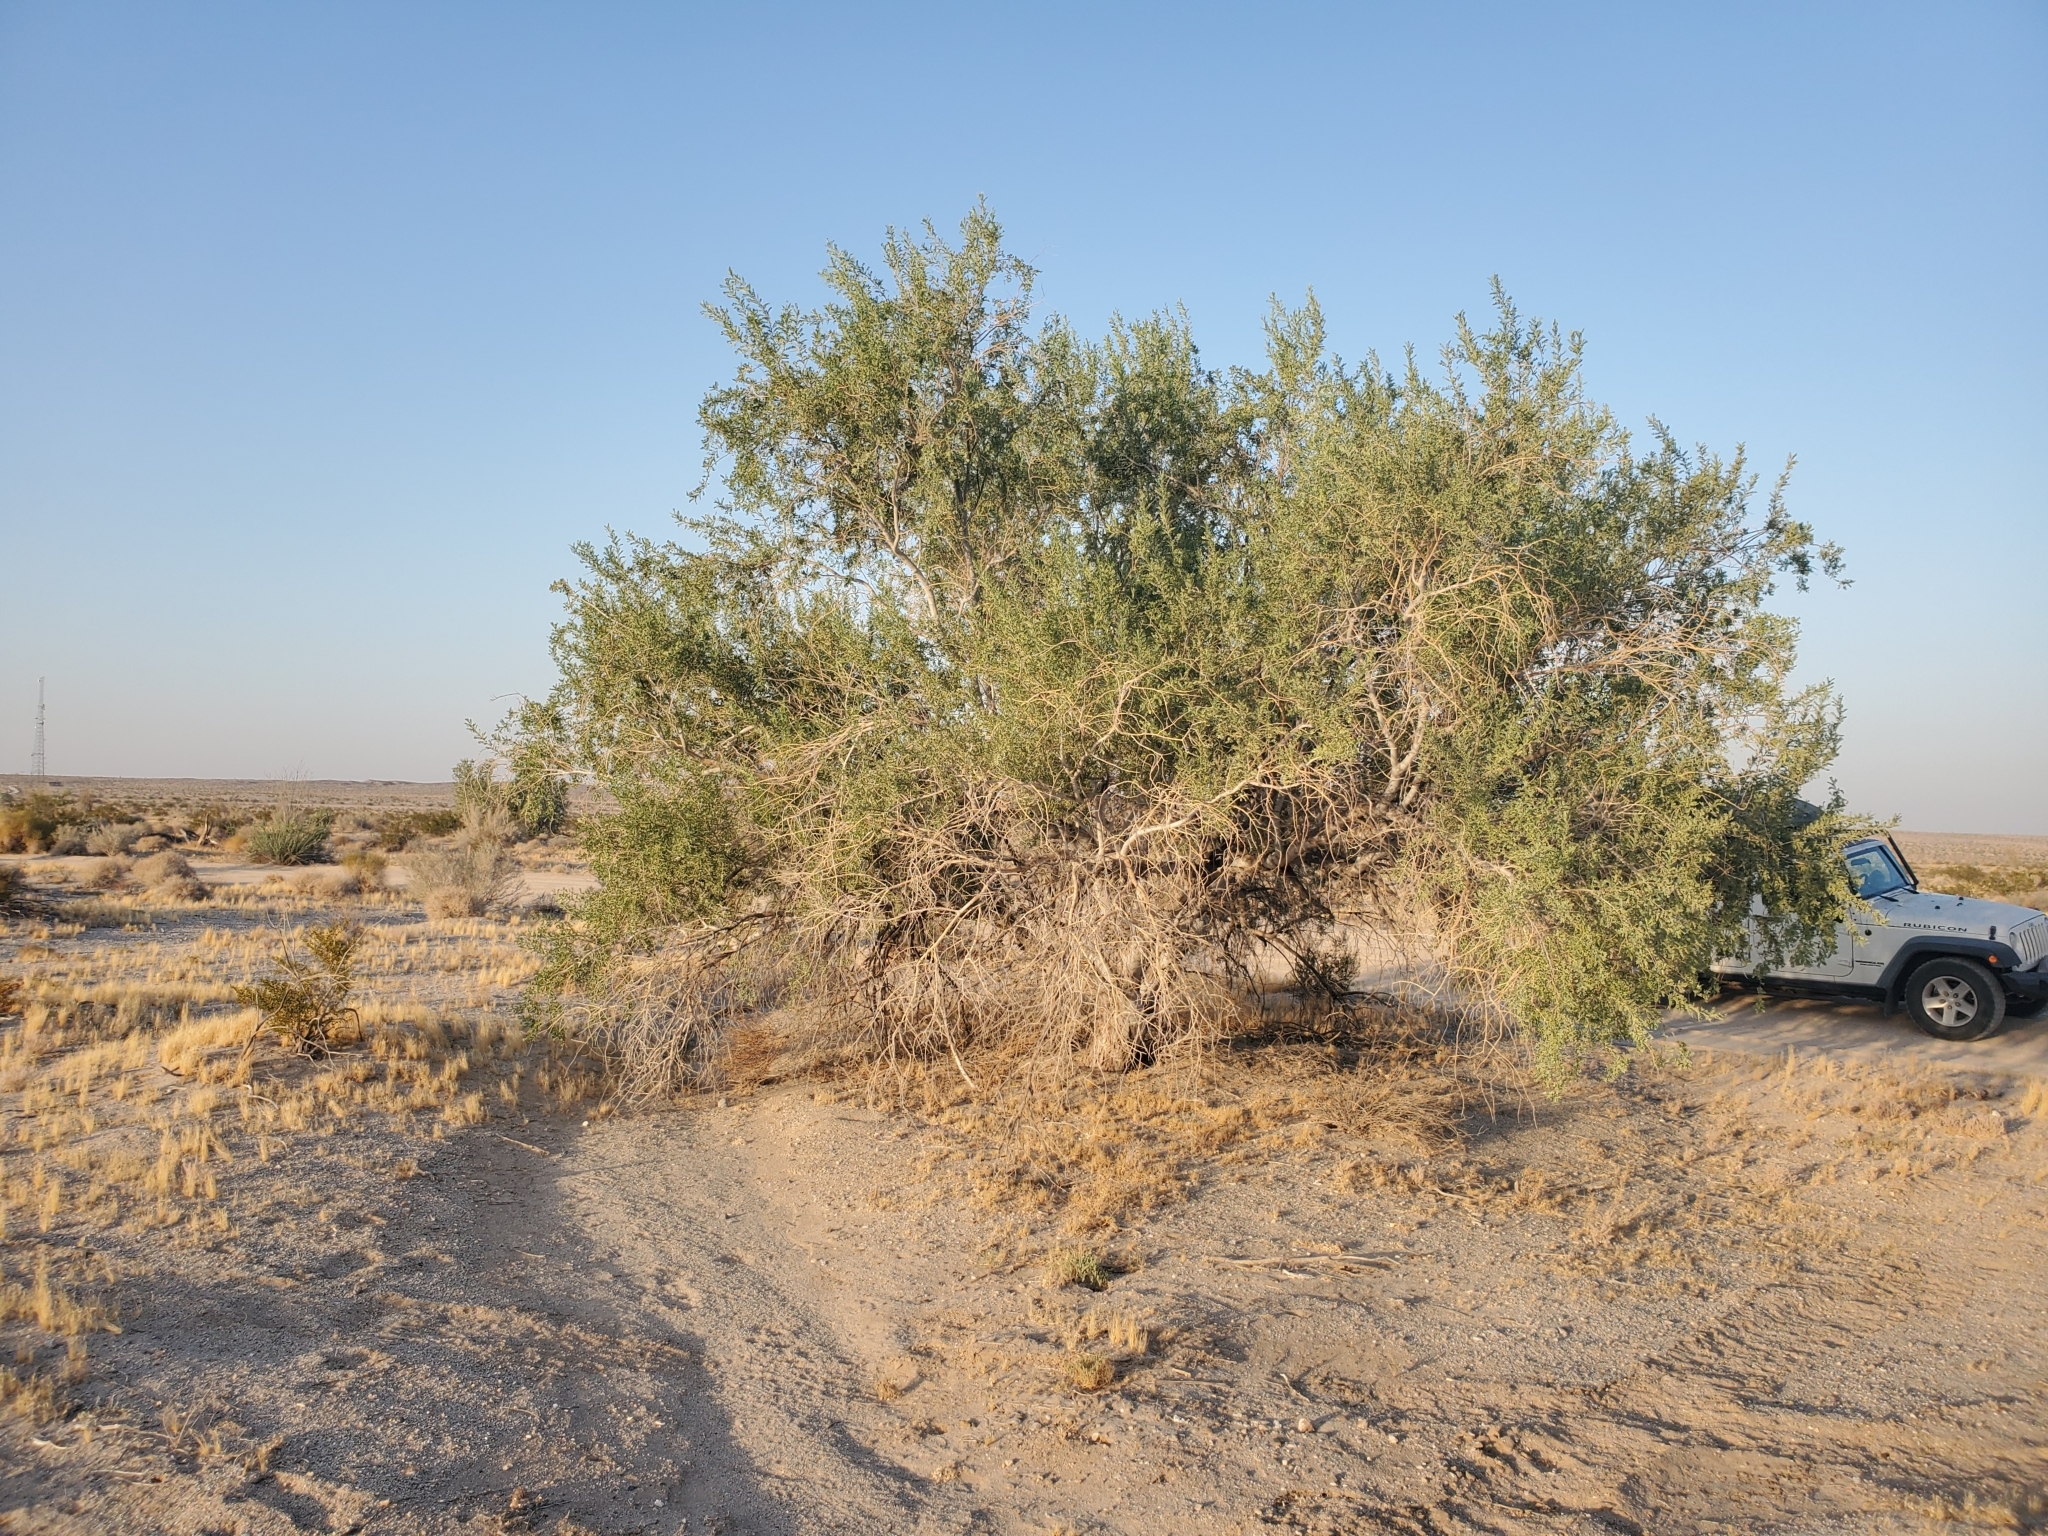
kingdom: Plantae
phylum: Tracheophyta
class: Magnoliopsida
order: Fabales
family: Fabaceae
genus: Olneya
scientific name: Olneya tesota
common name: Desert ironwood
